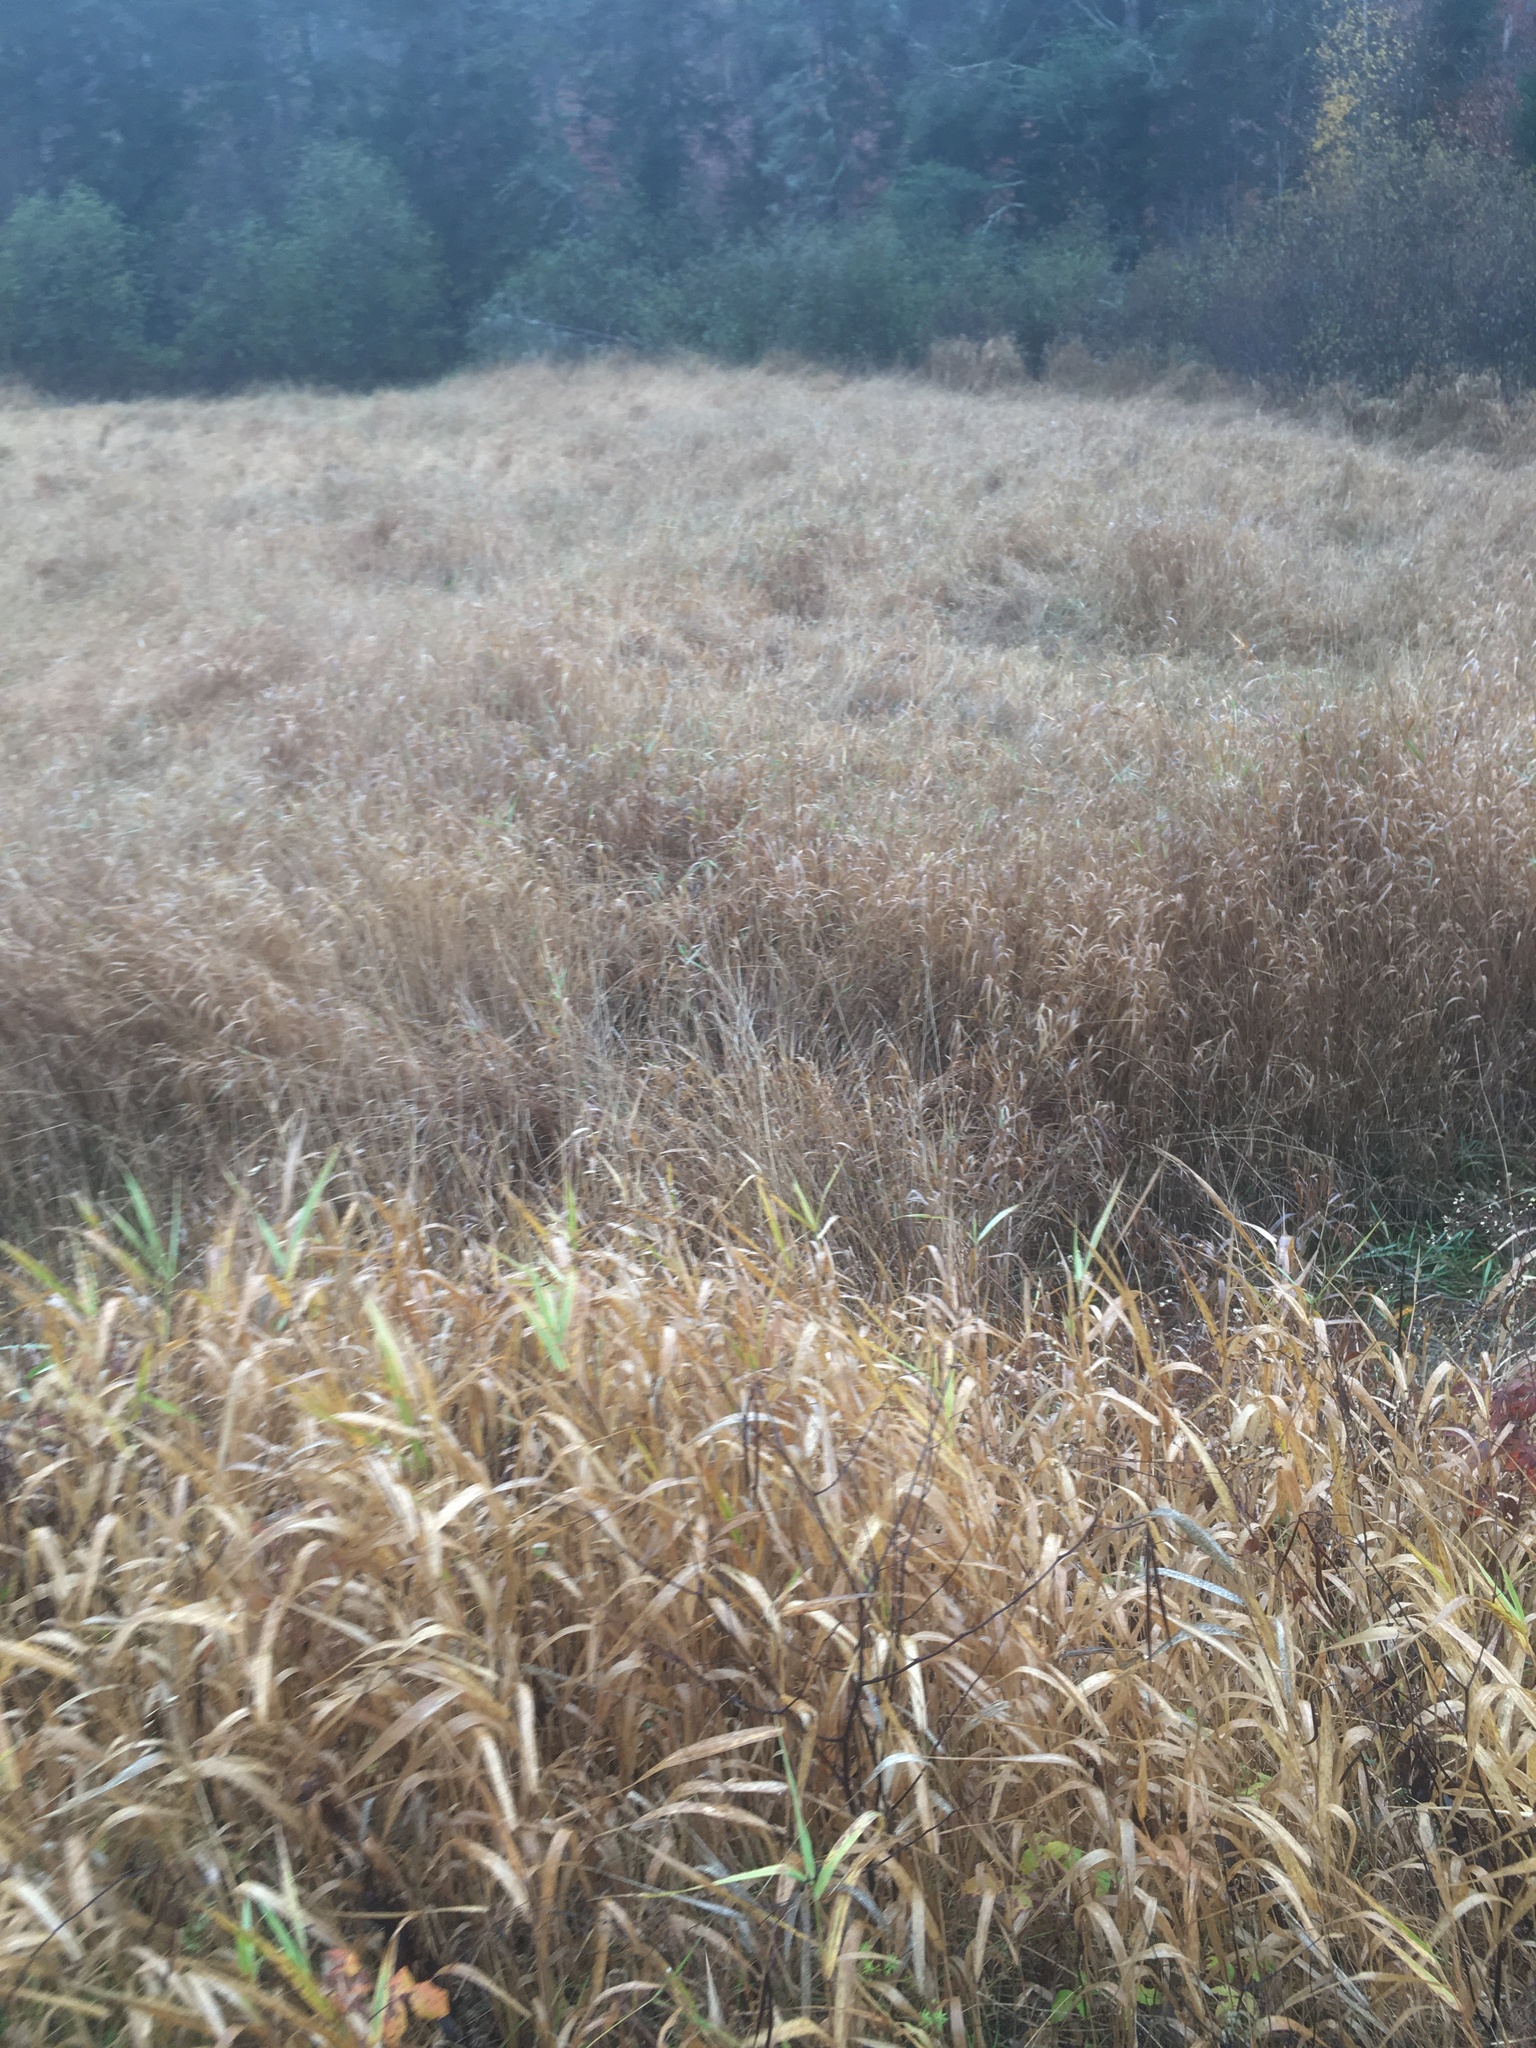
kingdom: Plantae
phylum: Tracheophyta
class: Liliopsida
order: Poales
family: Poaceae
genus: Phalaris
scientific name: Phalaris arundinacea
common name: Reed canary-grass
